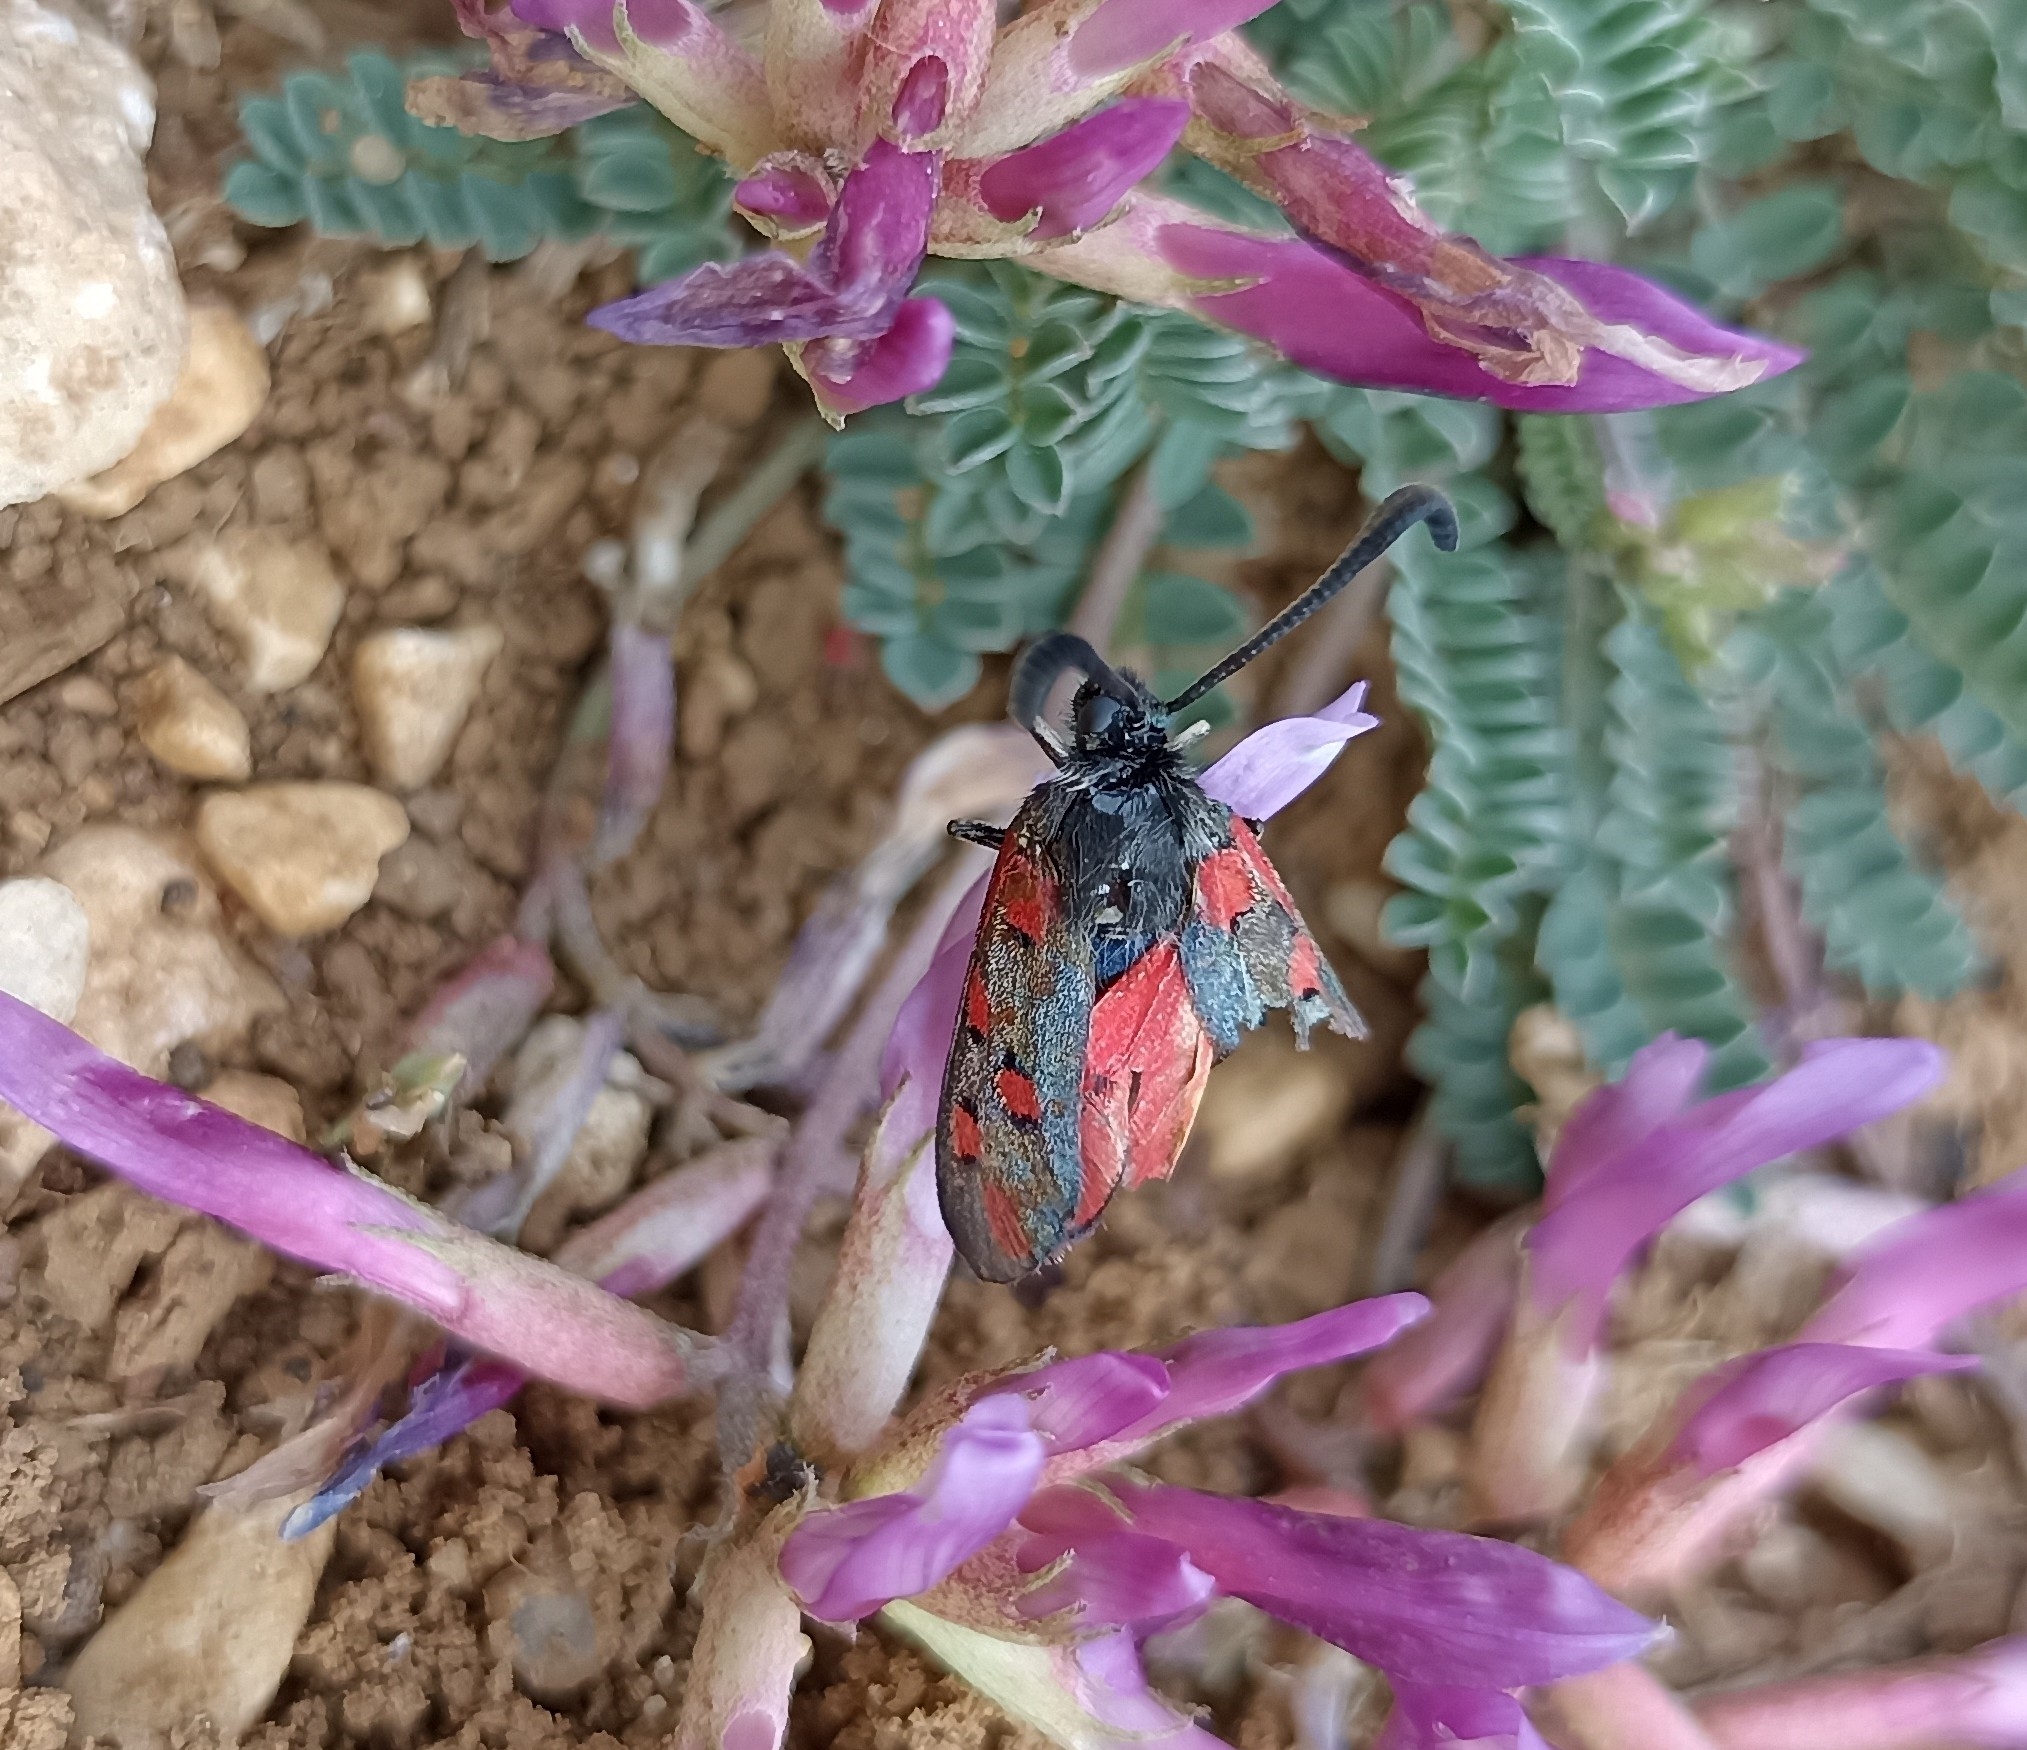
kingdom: Animalia
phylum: Arthropoda
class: Insecta
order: Lepidoptera
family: Zygaenidae
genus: Zygaena
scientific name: Zygaena rhadamanthus
